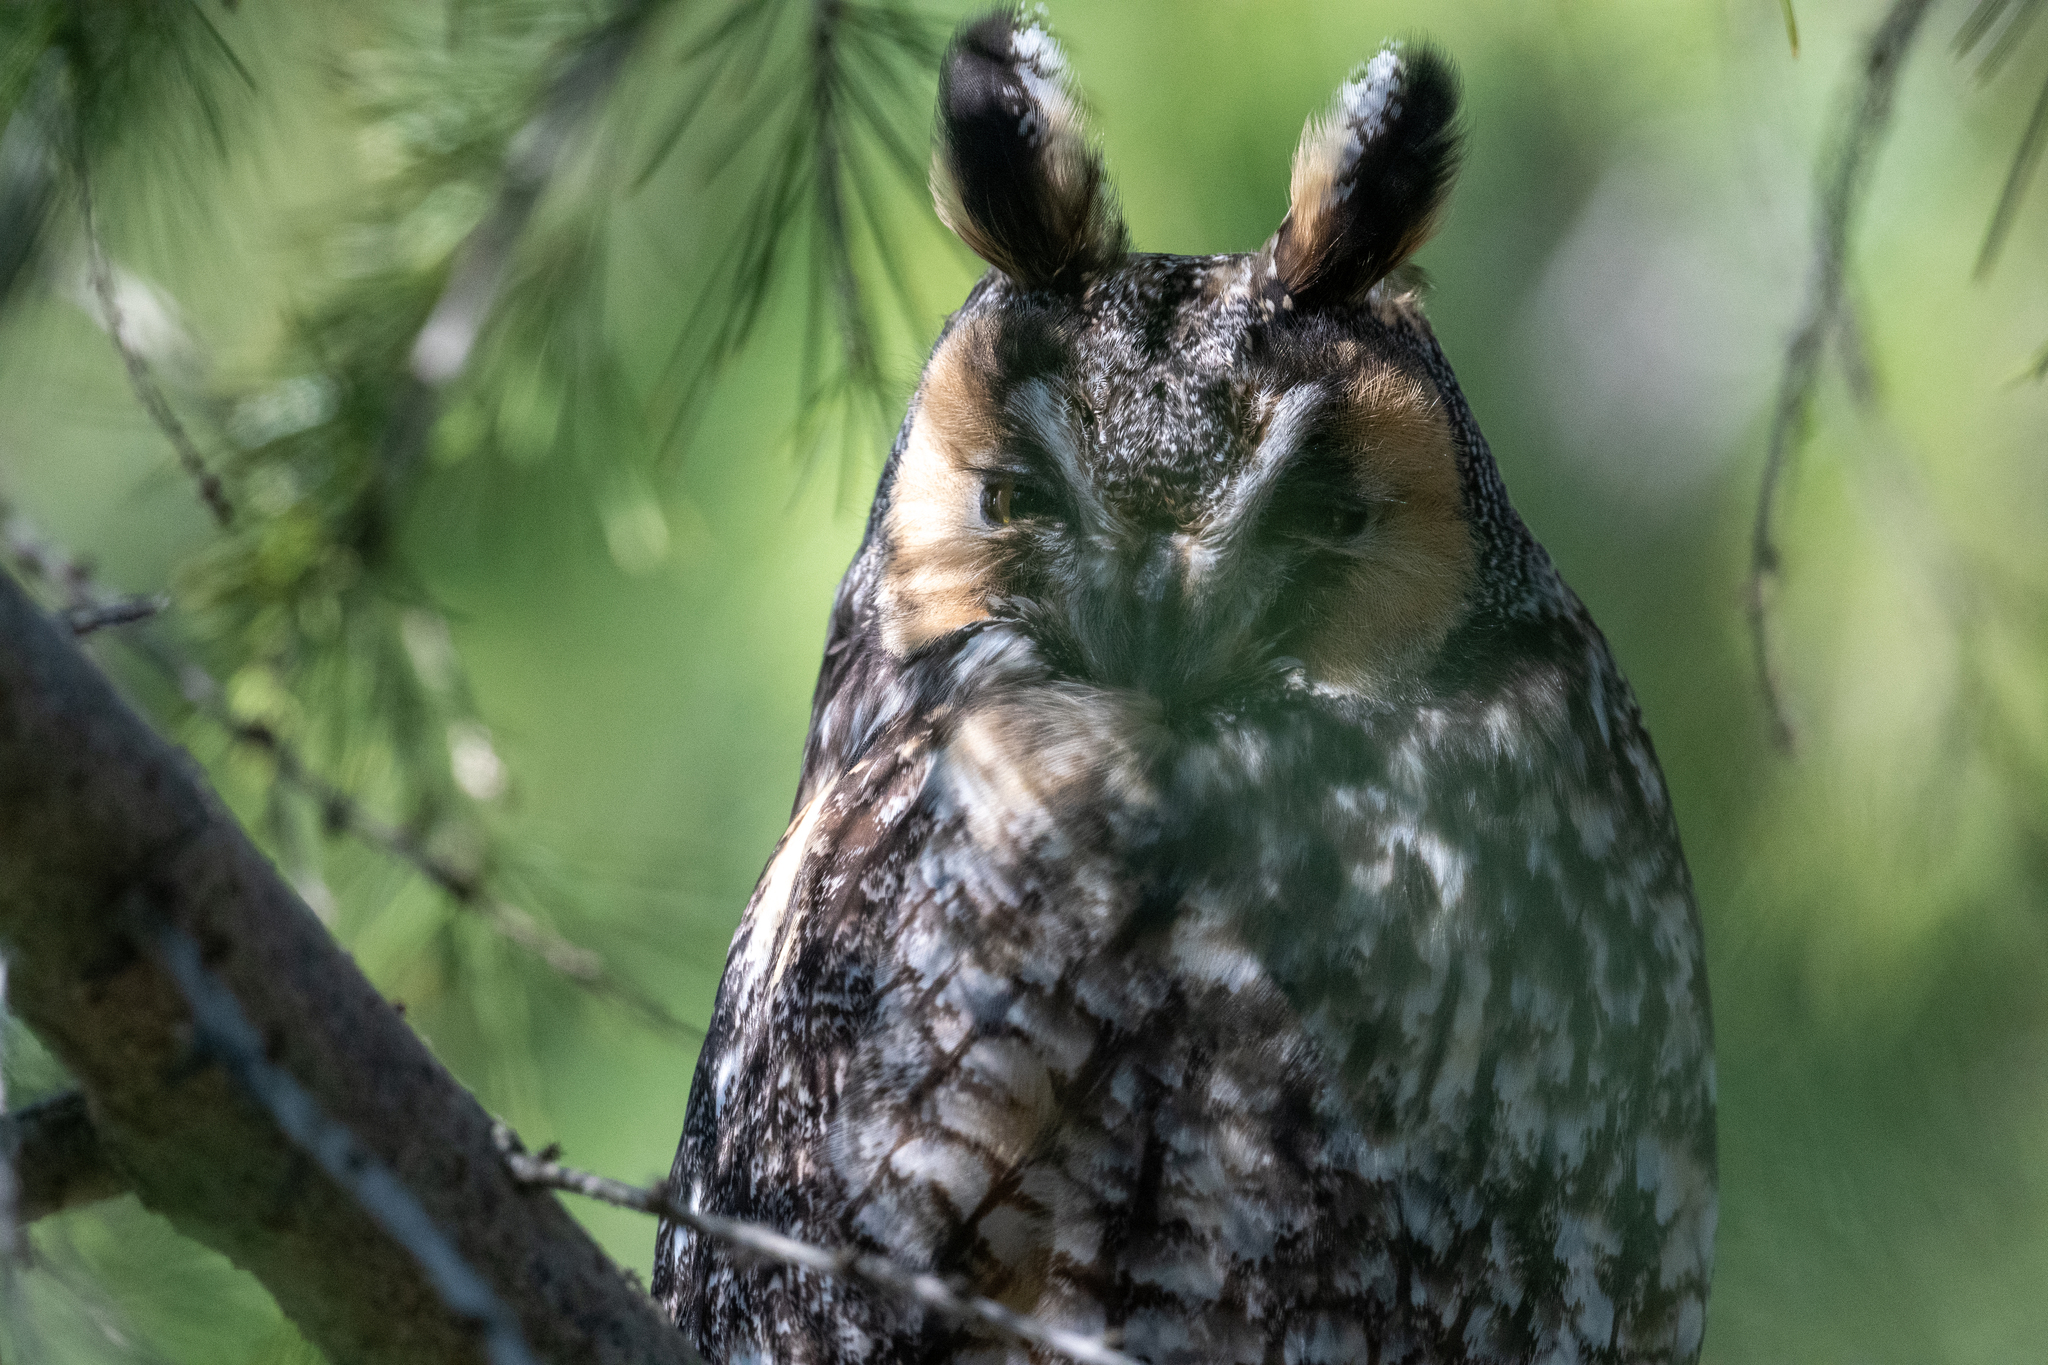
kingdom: Animalia
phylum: Chordata
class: Aves
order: Strigiformes
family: Strigidae
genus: Asio
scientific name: Asio otus
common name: Long-eared owl
